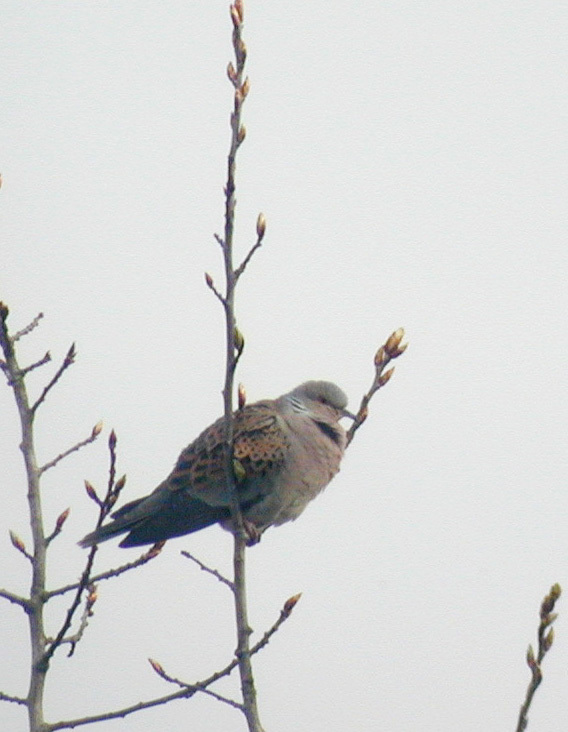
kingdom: Animalia
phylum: Chordata
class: Aves
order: Columbiformes
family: Columbidae
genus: Streptopelia
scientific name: Streptopelia turtur
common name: European turtle dove
